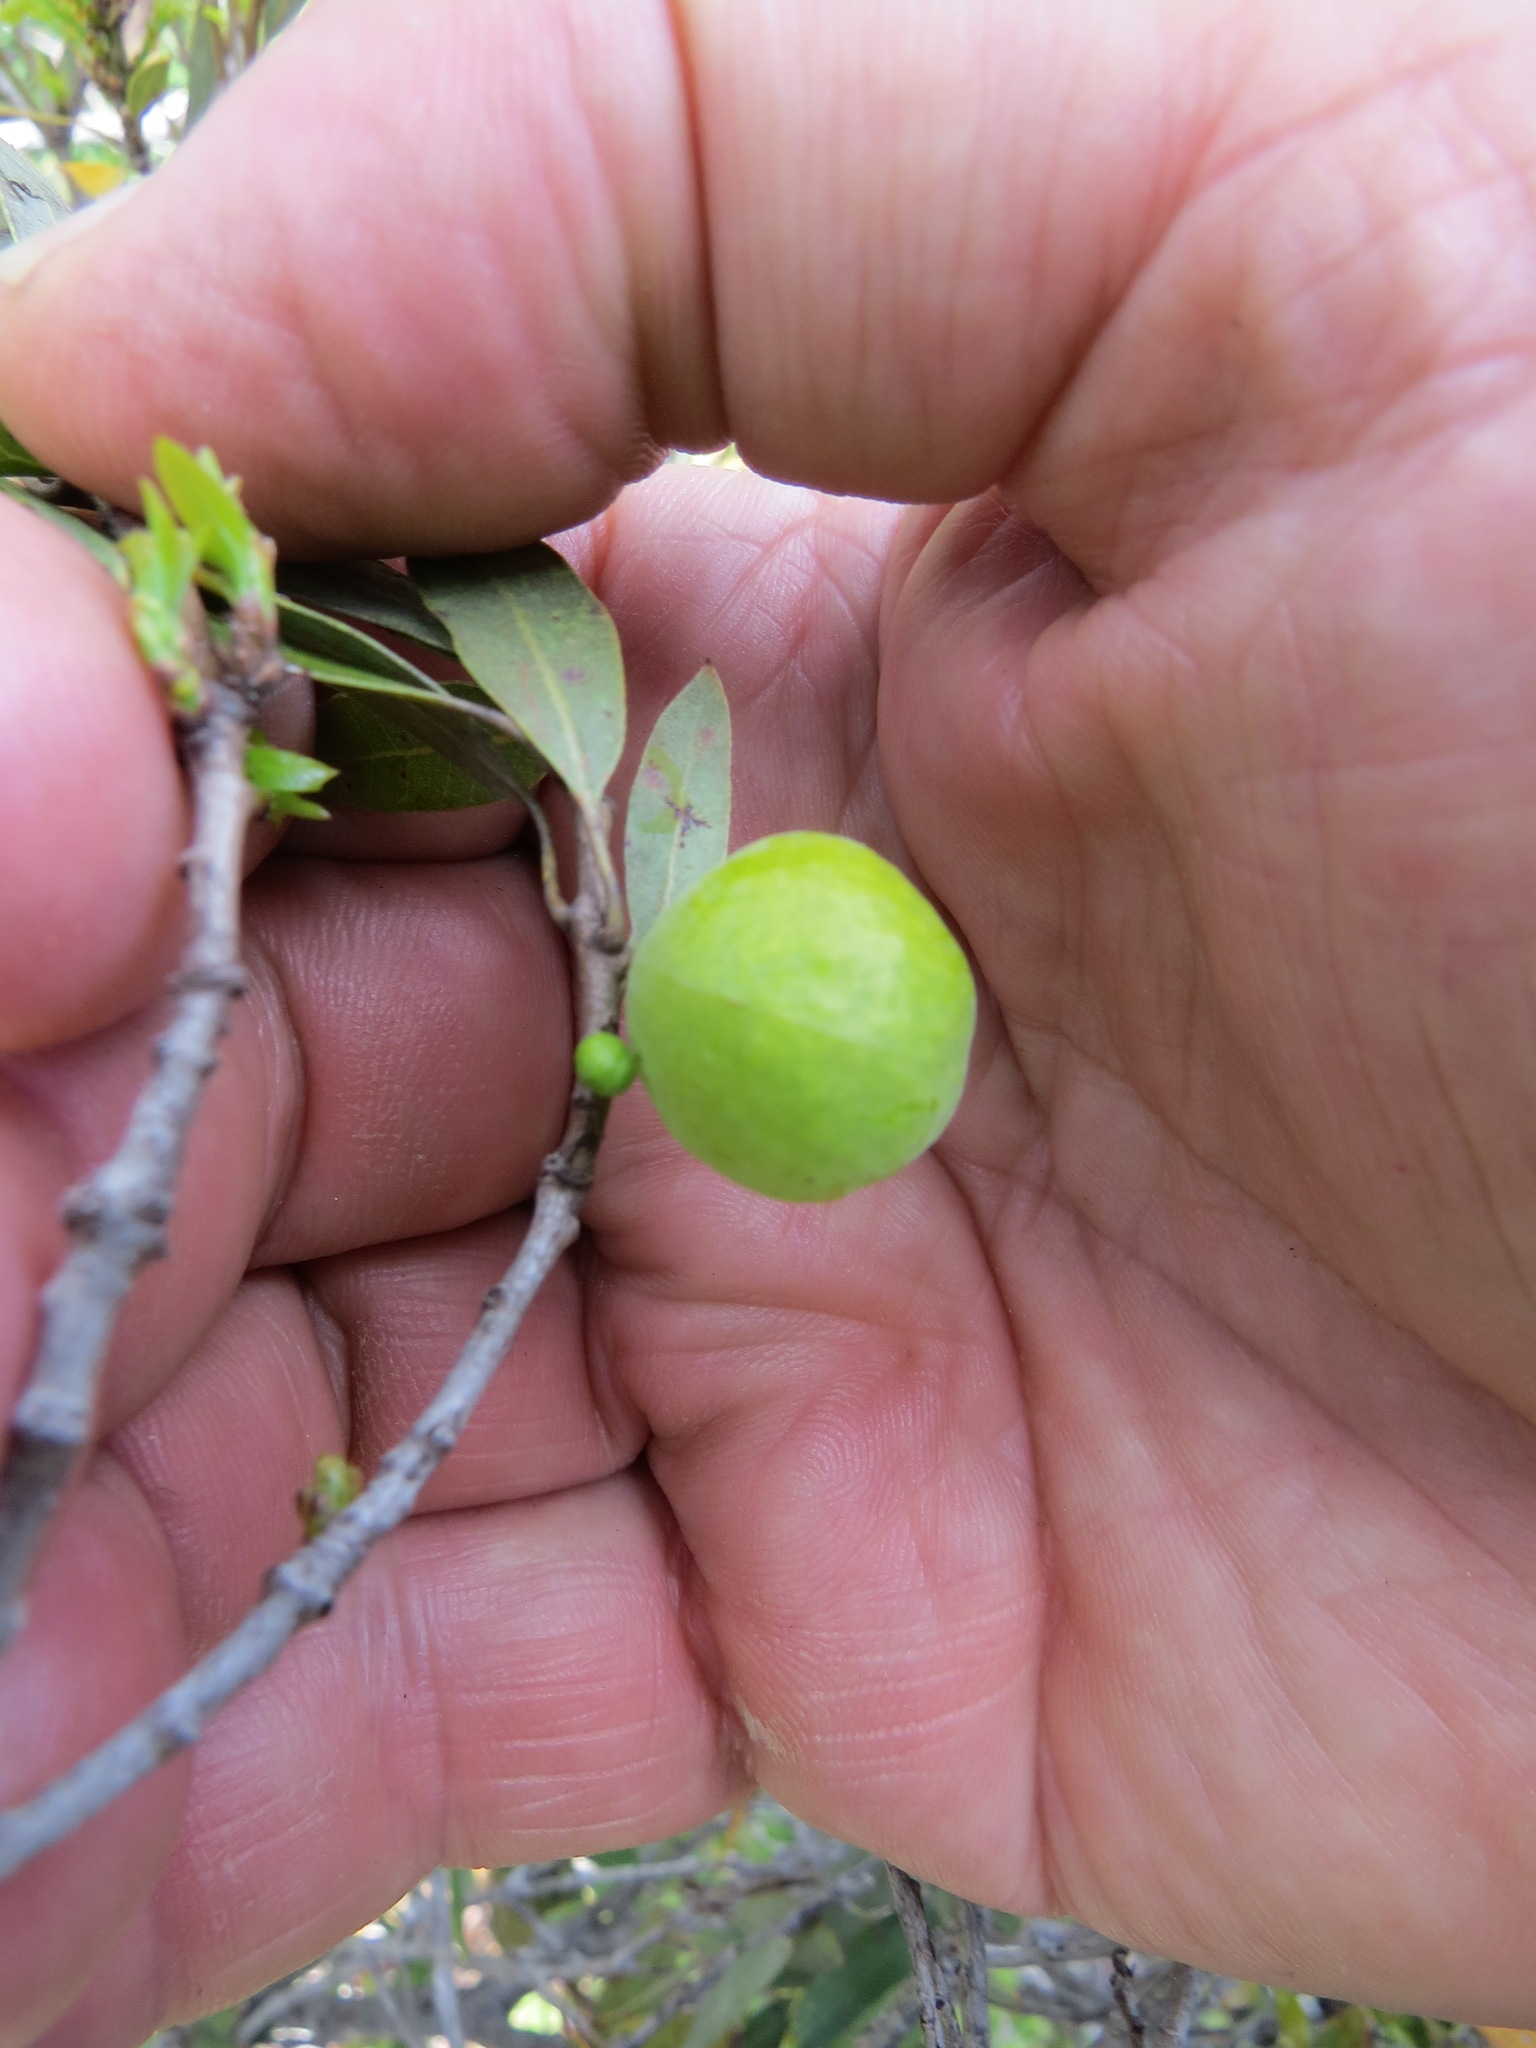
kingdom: Animalia
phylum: Arthropoda
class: Insecta
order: Hymenoptera
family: Cynipidae
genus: Andricus
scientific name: Andricus
